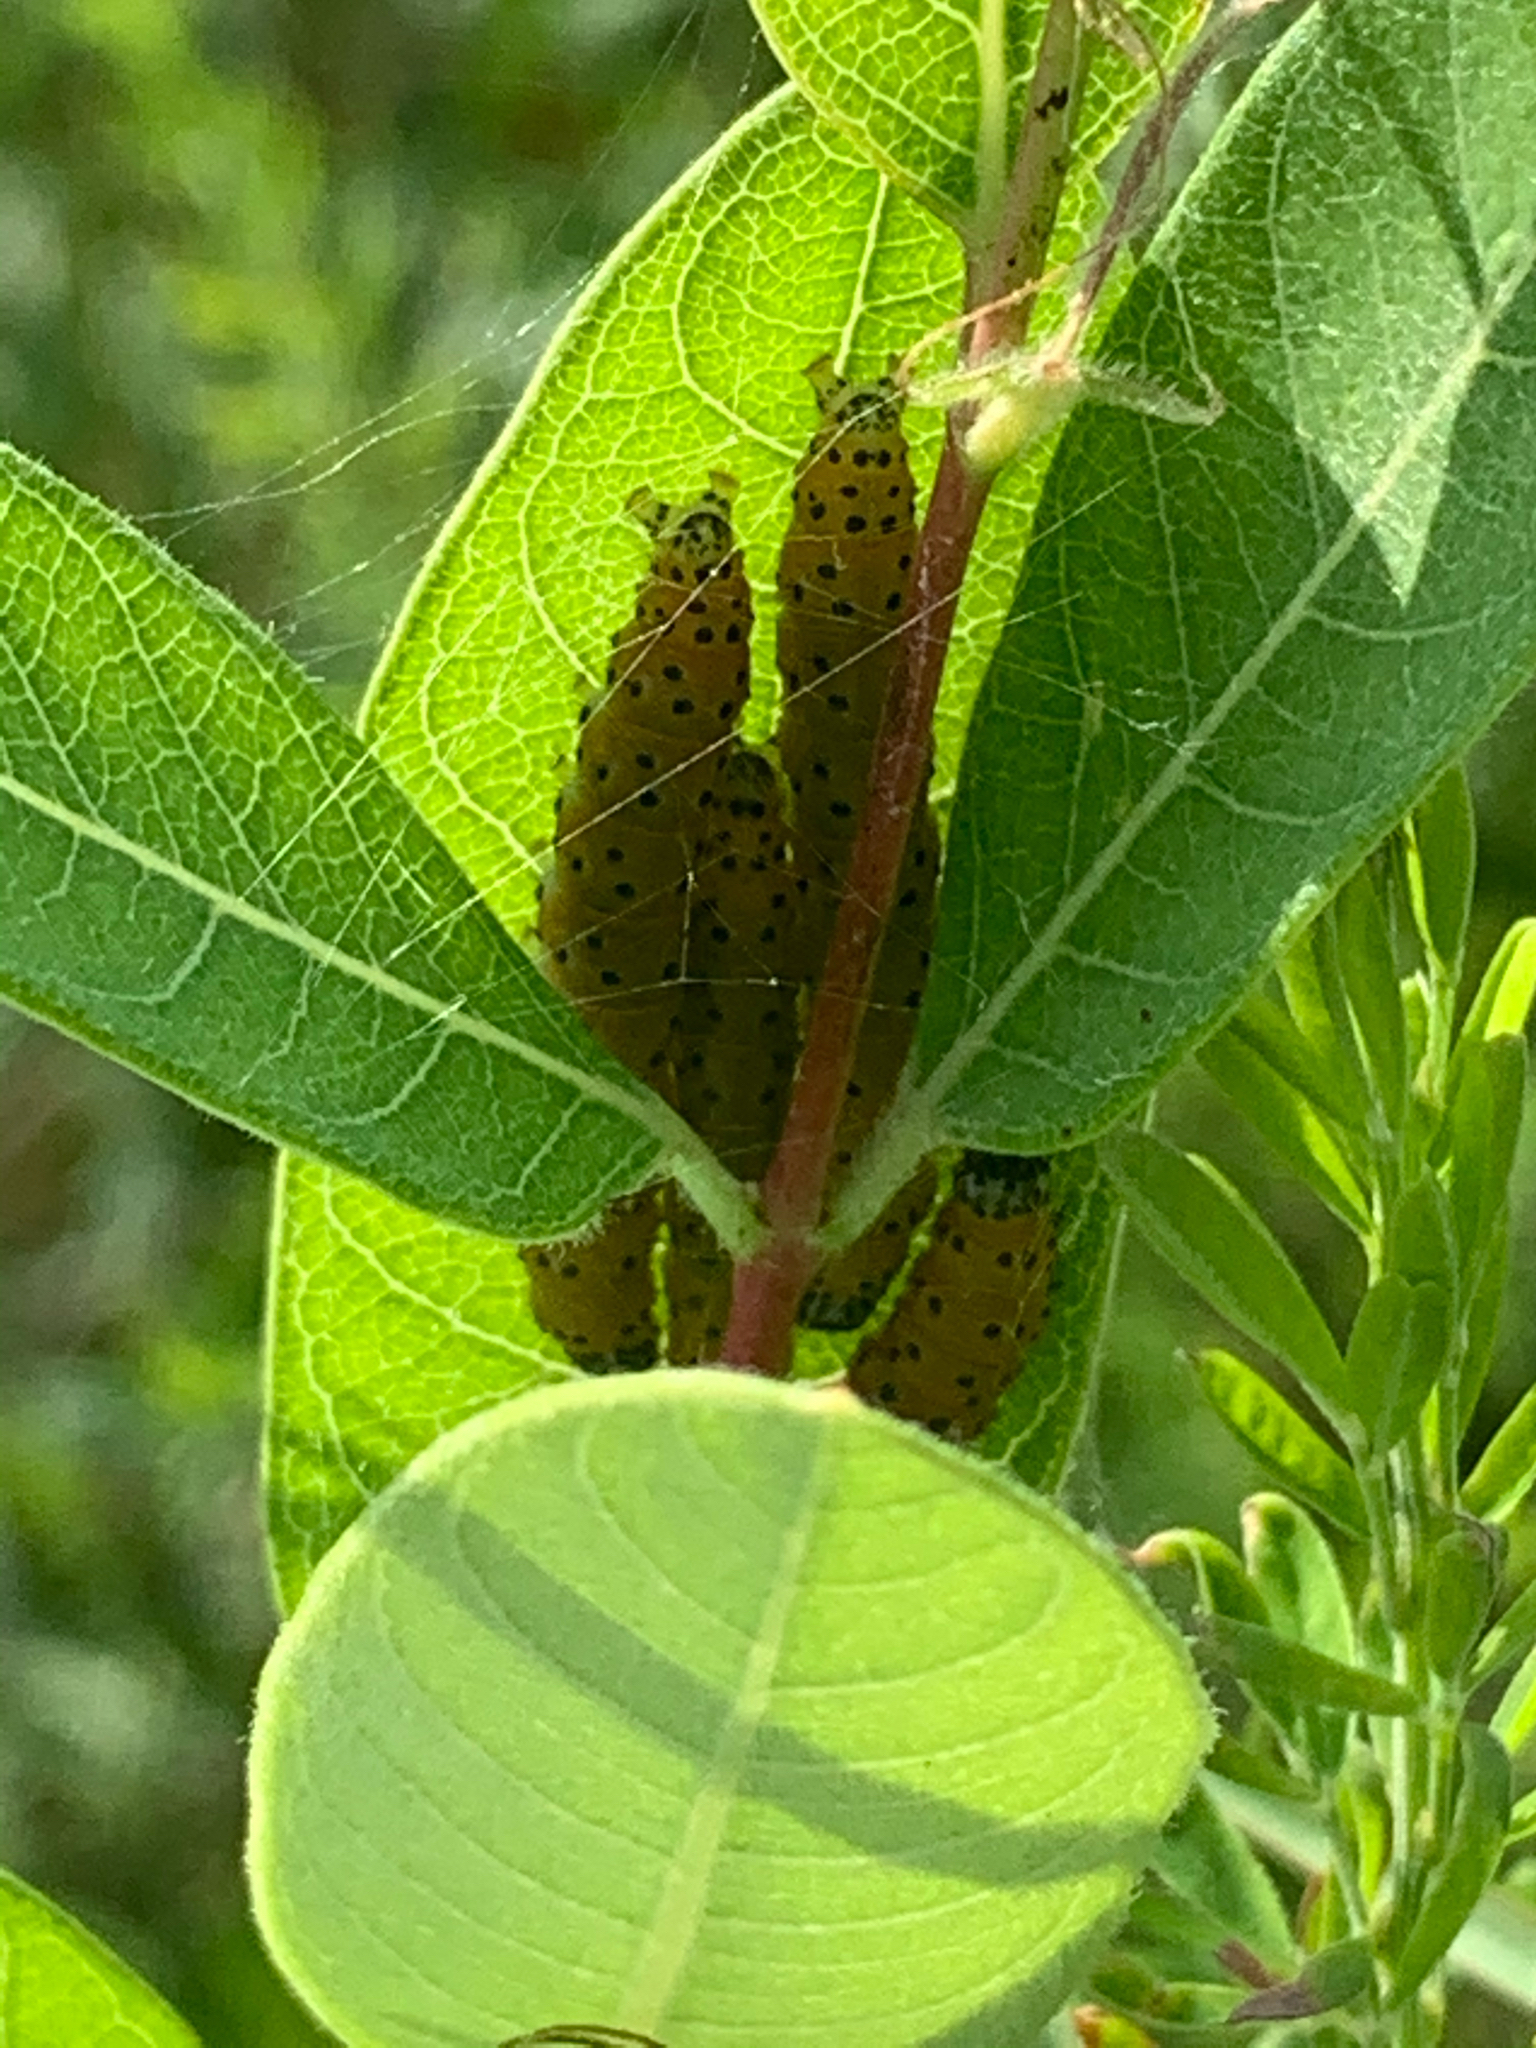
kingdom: Animalia
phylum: Arthropoda
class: Insecta
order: Lepidoptera
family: Crambidae
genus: Saucrobotys
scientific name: Saucrobotys futilalis
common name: Dogbane saucrobotys moth
